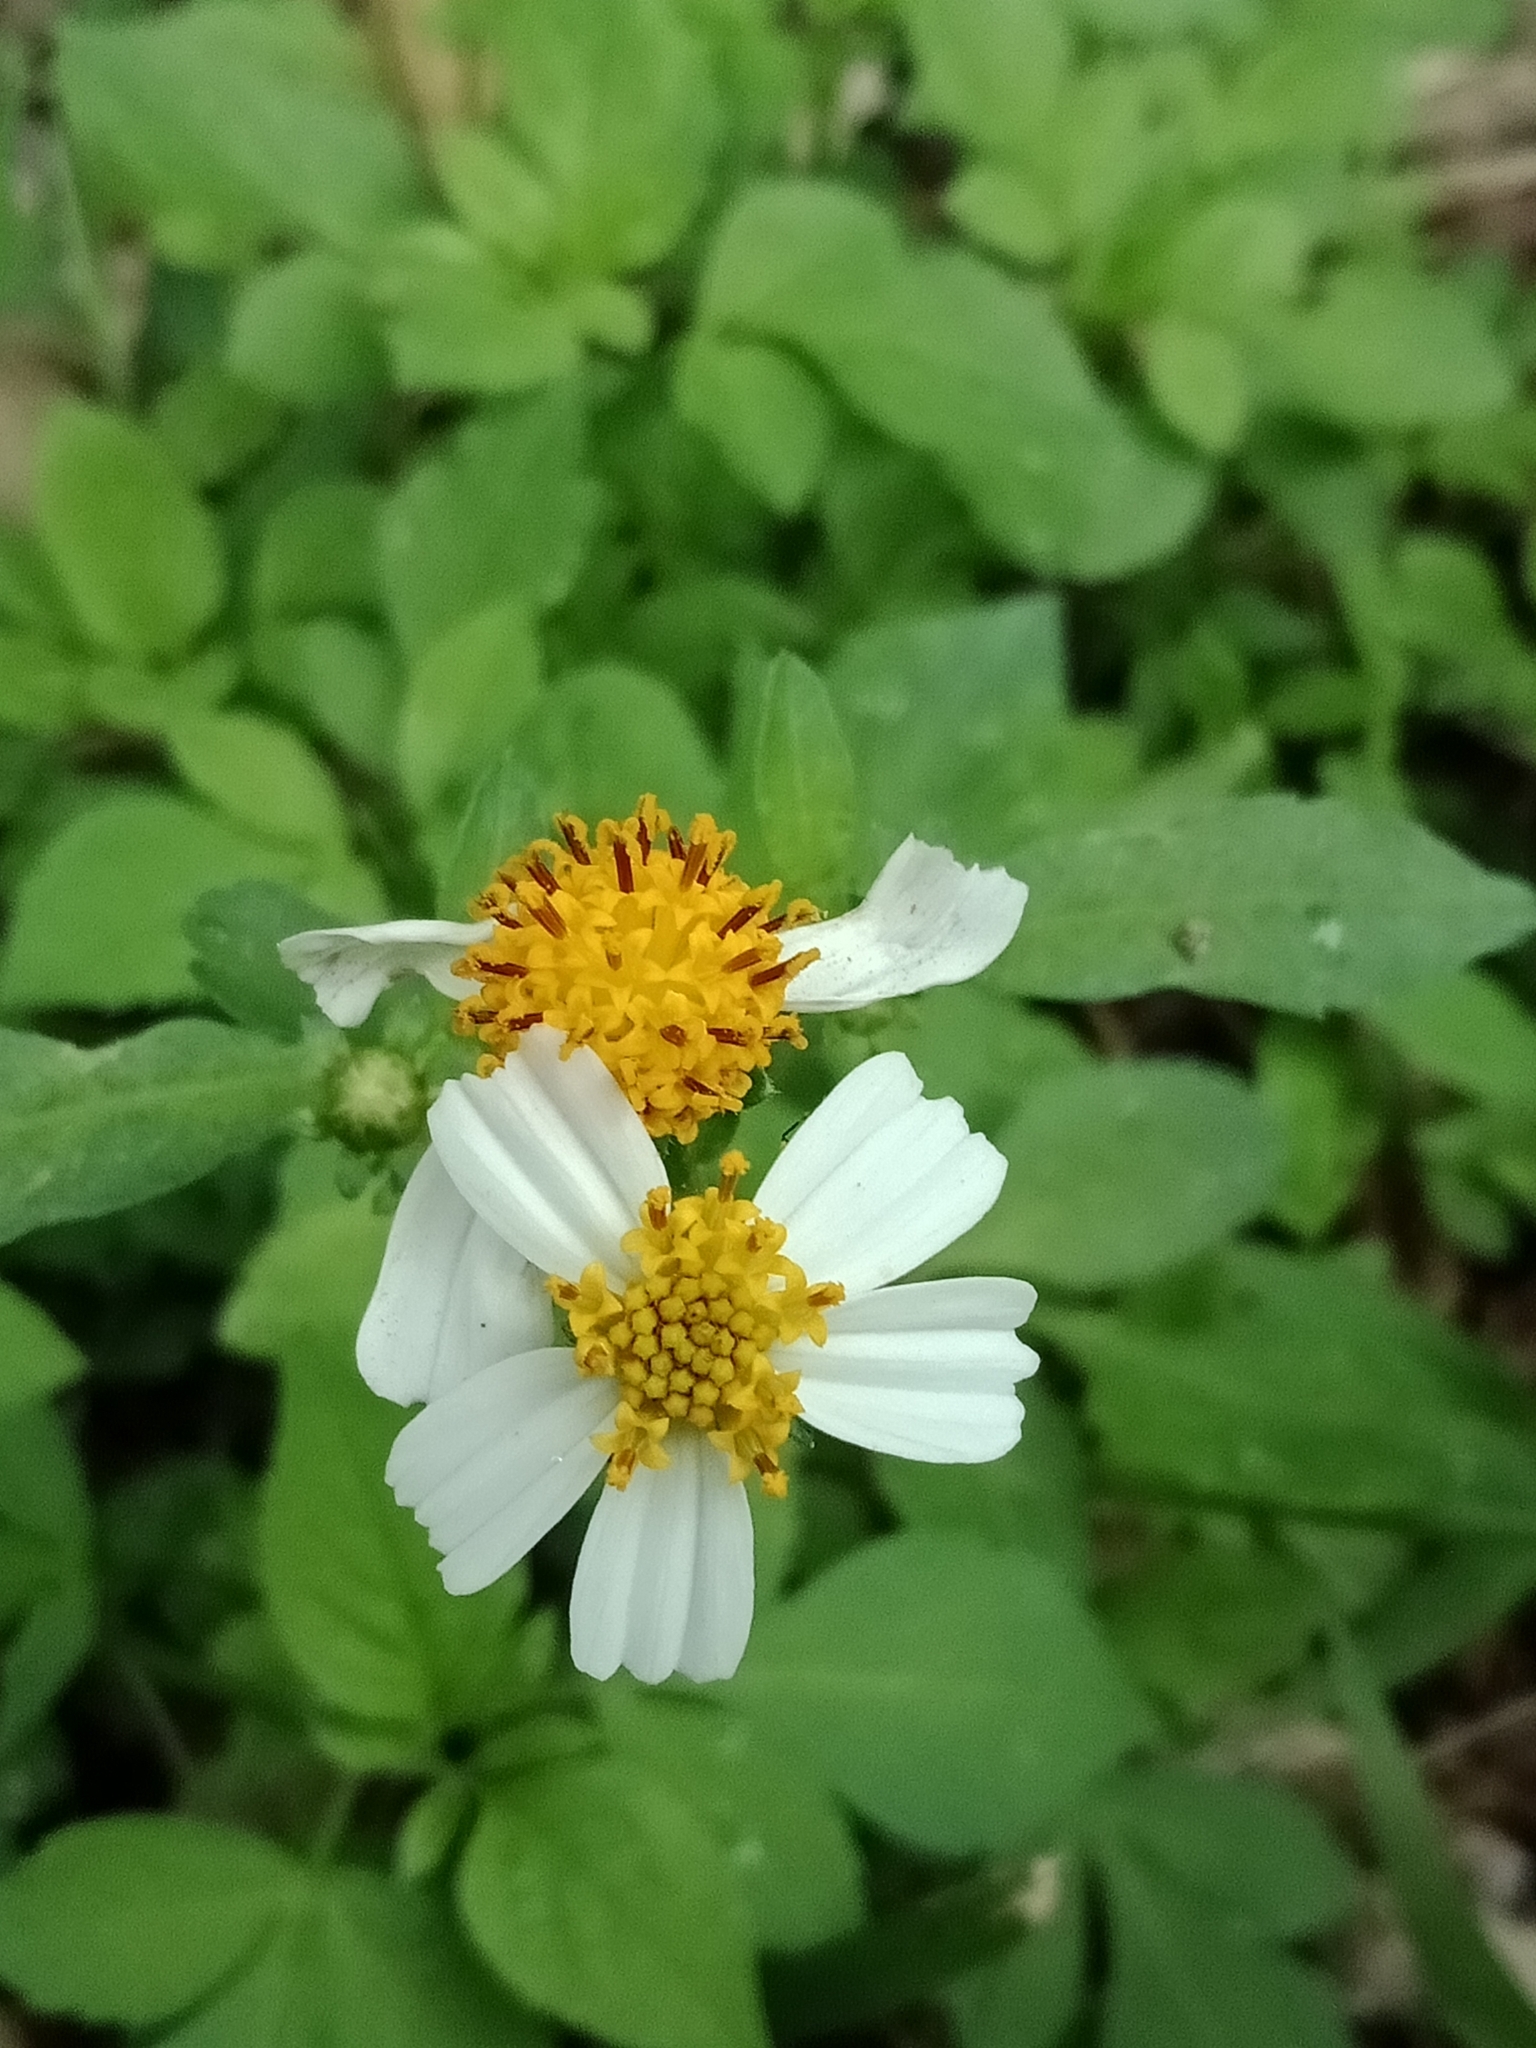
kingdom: Plantae
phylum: Tracheophyta
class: Magnoliopsida
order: Asterales
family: Asteraceae
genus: Bidens
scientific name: Bidens alba
